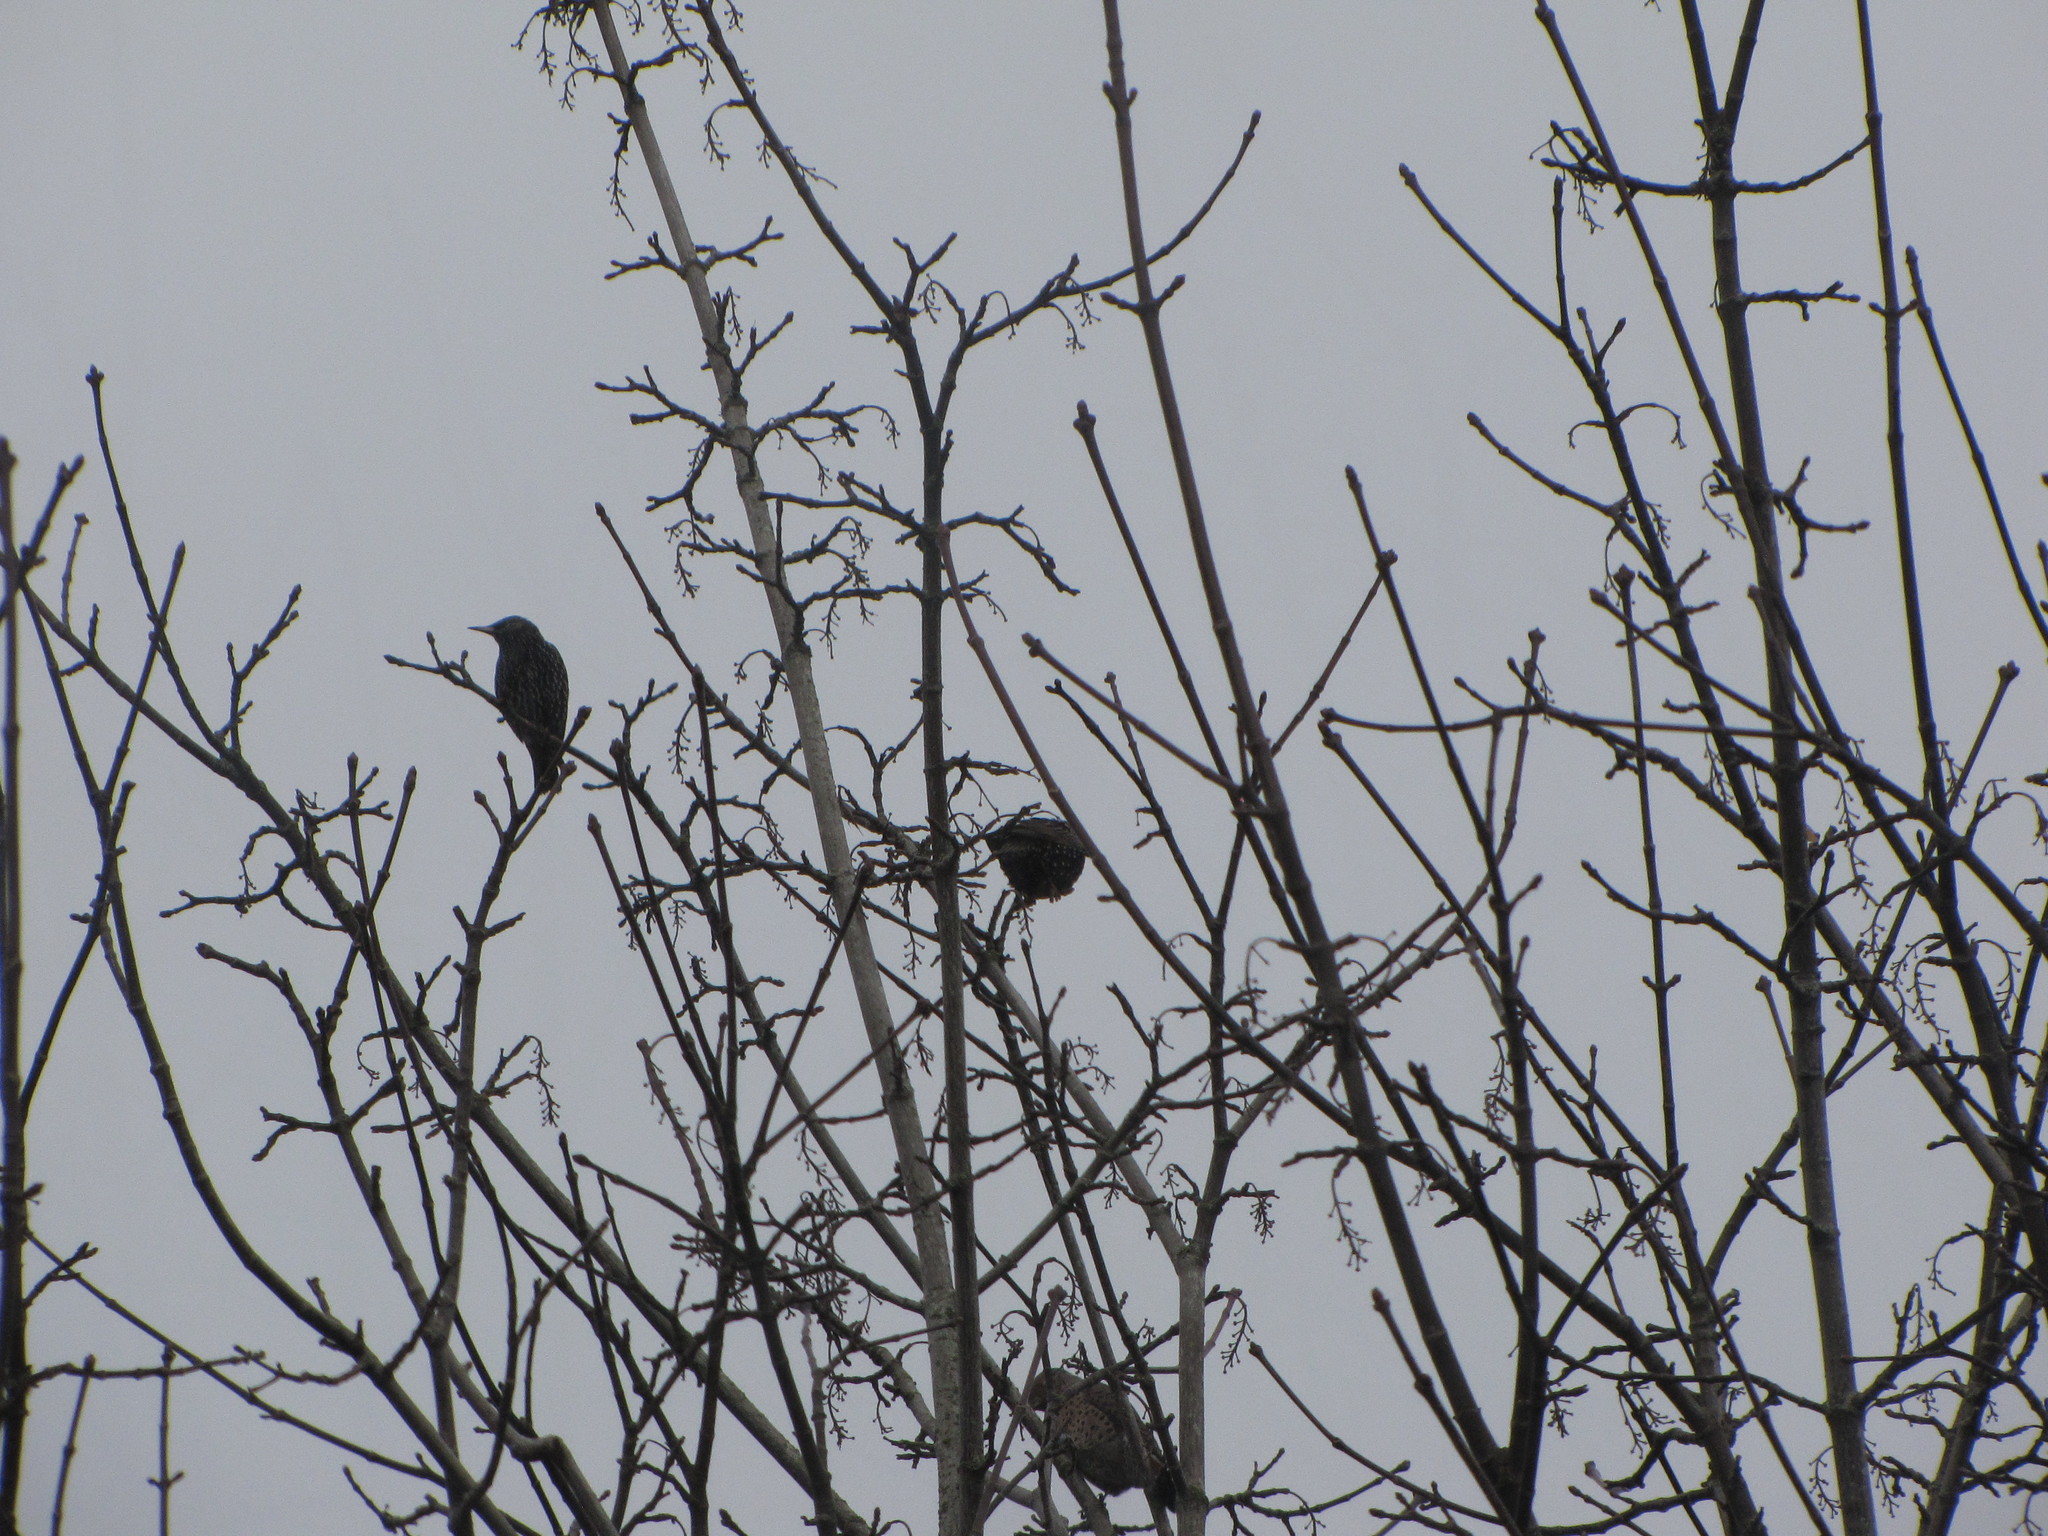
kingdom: Animalia
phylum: Chordata
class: Aves
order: Passeriformes
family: Sturnidae
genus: Sturnus
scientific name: Sturnus vulgaris
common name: Common starling
